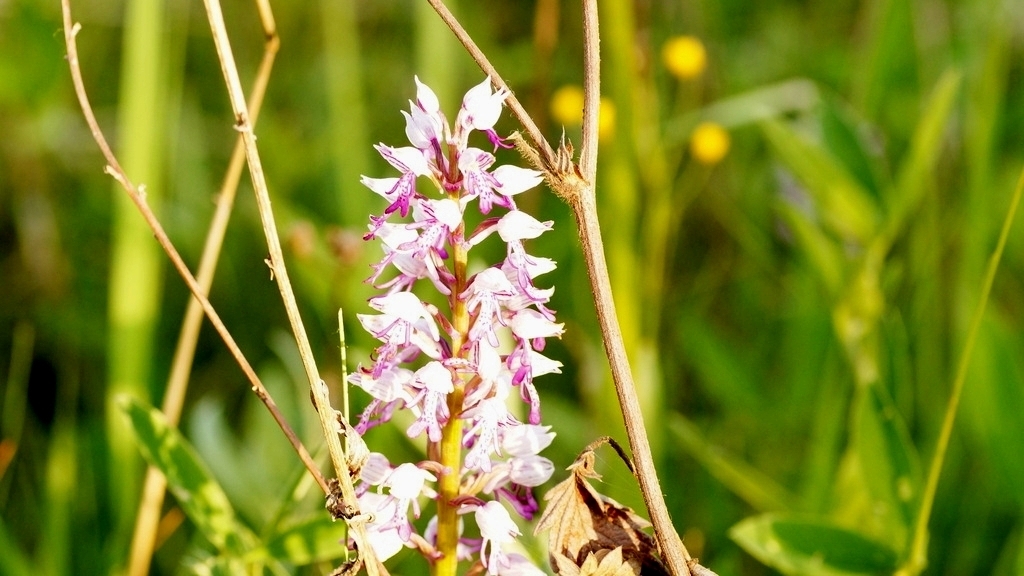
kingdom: Plantae
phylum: Tracheophyta
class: Liliopsida
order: Asparagales
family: Orchidaceae
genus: Orchis
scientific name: Orchis militaris
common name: Military orchid
